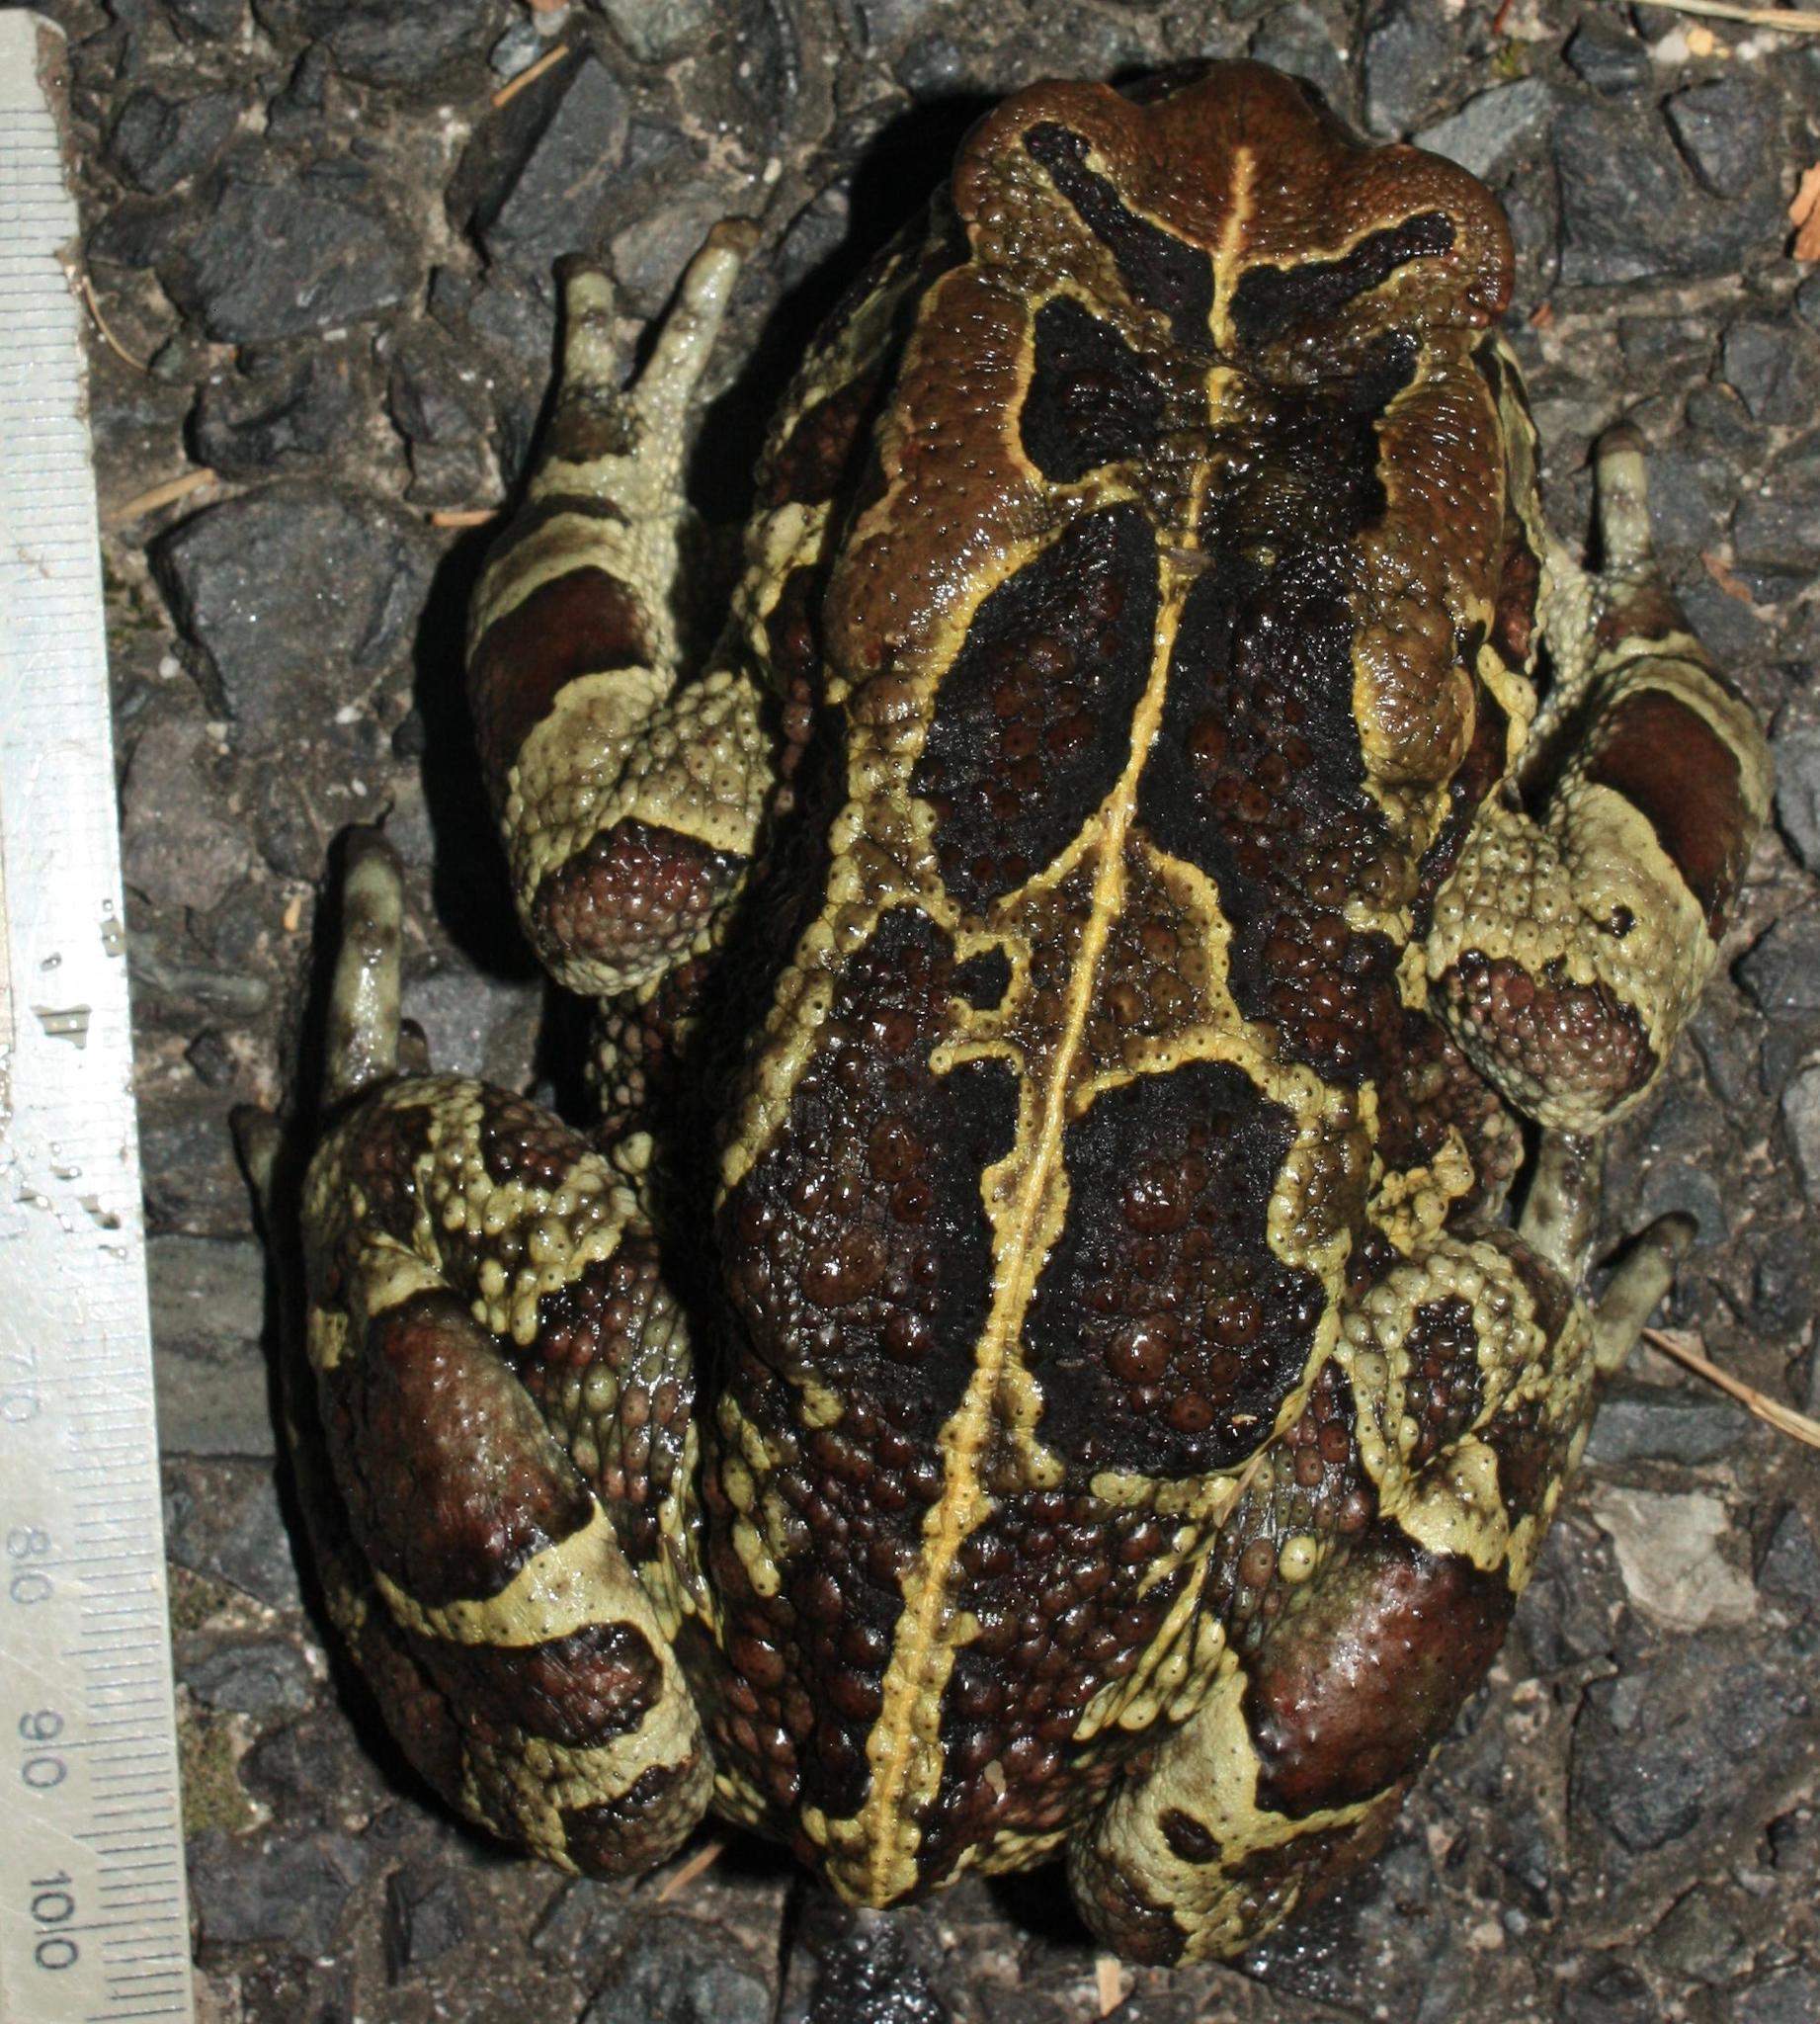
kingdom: Animalia
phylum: Chordata
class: Amphibia
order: Anura
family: Bufonidae
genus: Sclerophrys
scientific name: Sclerophrys pantherina
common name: Panther toad
